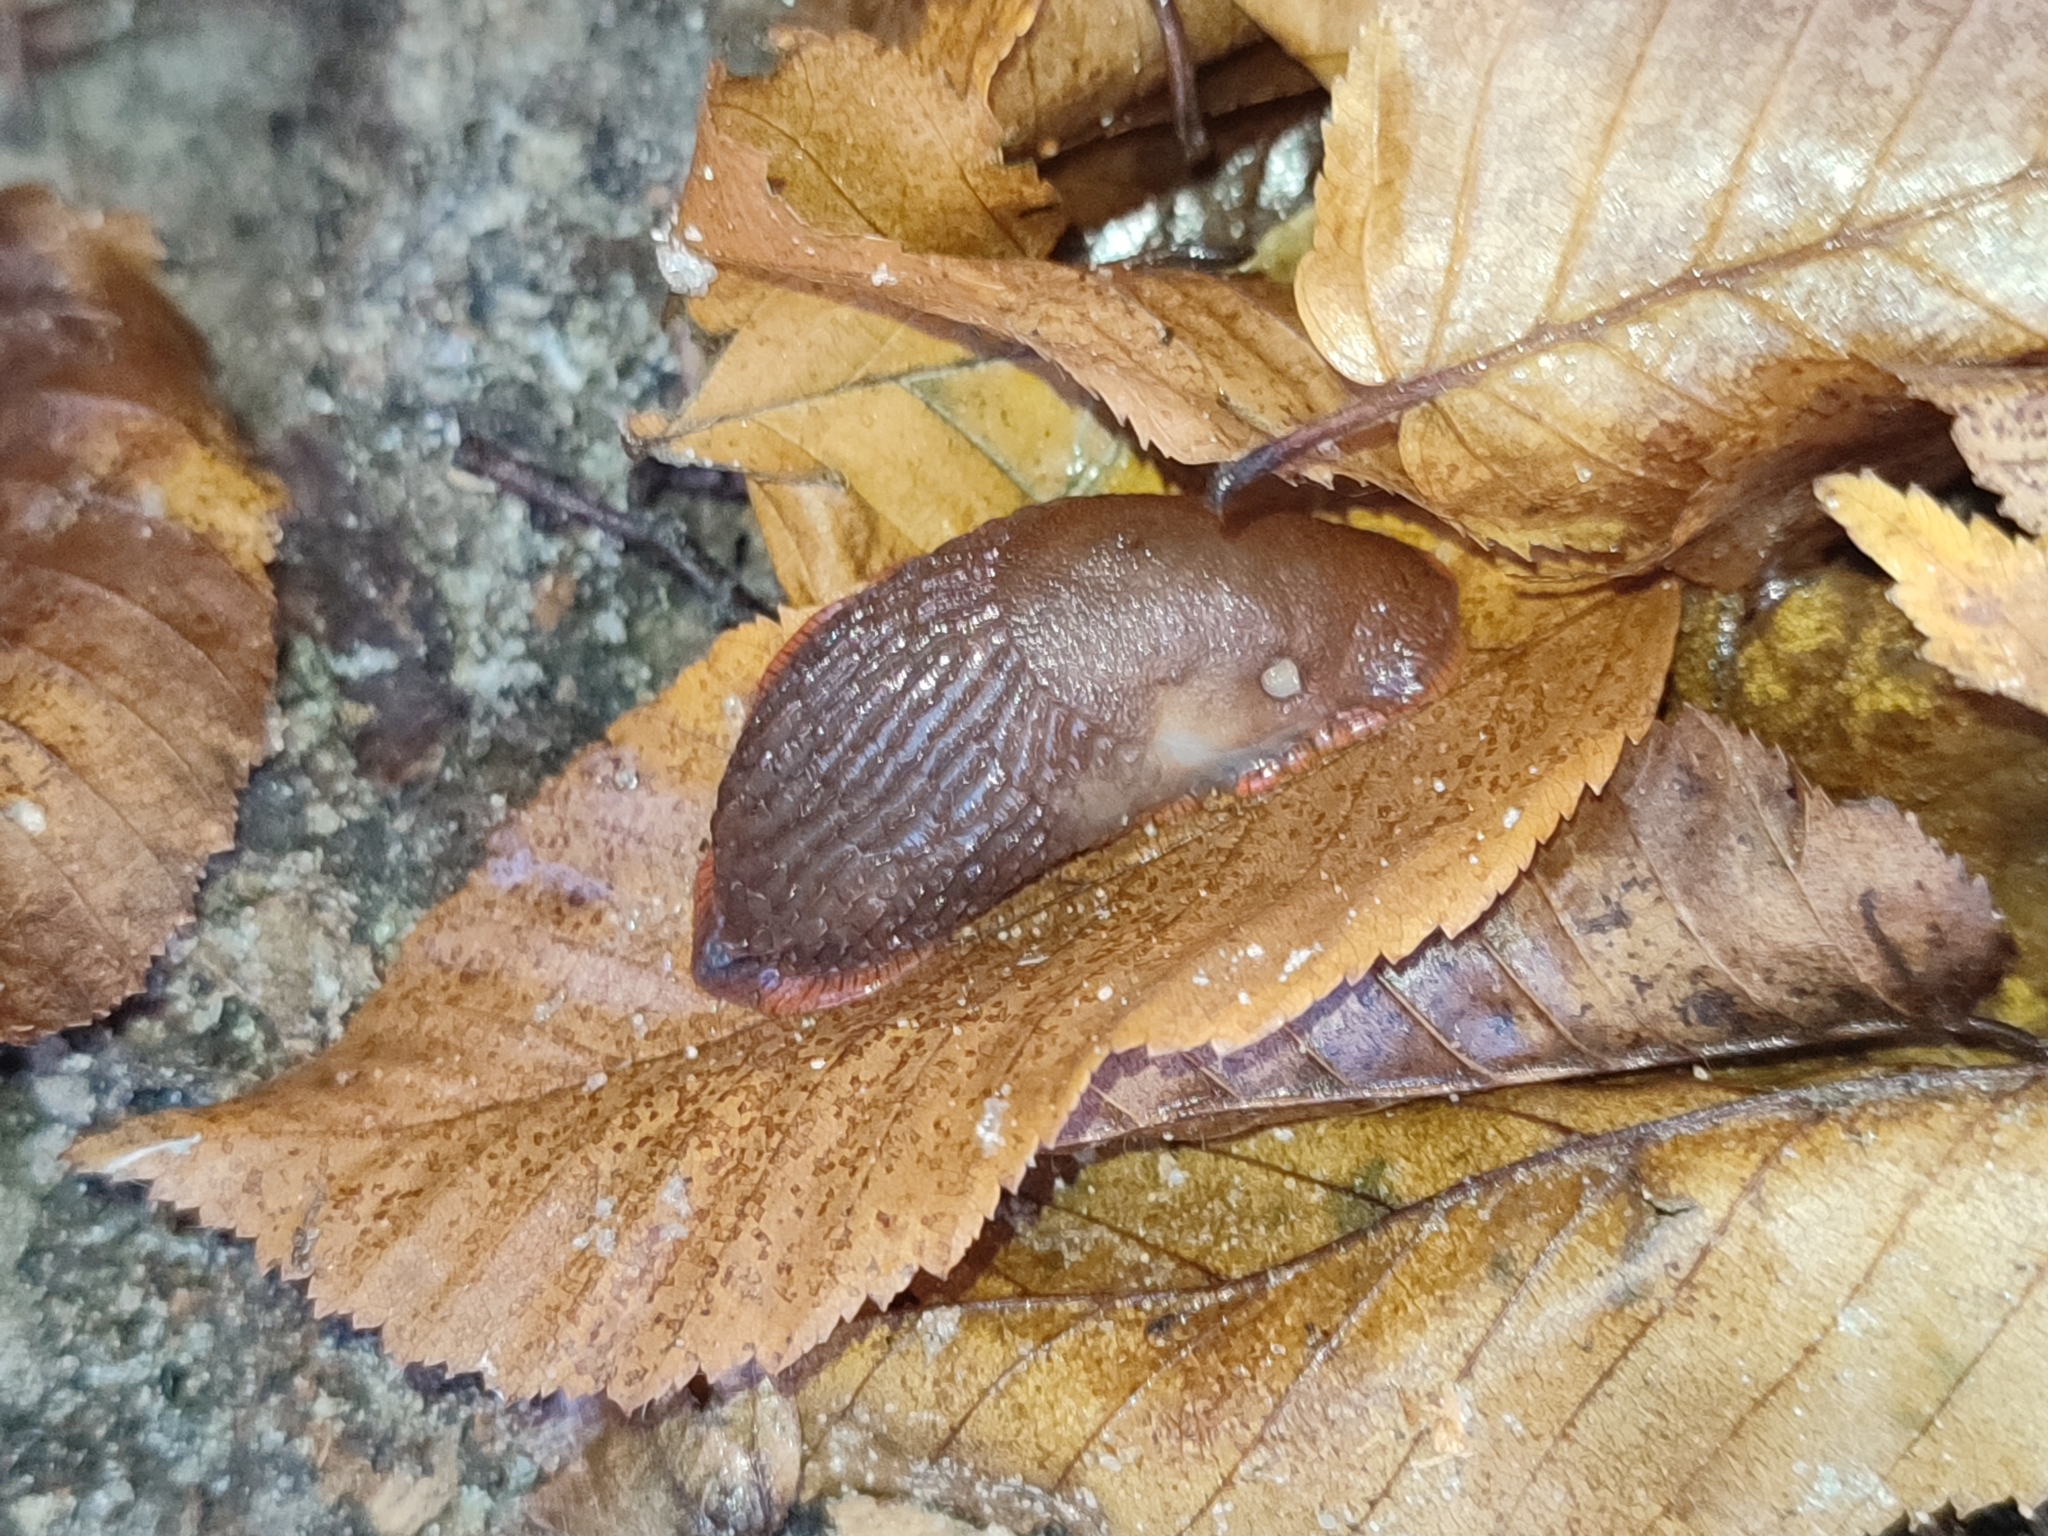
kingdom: Animalia
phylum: Mollusca
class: Gastropoda
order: Stylommatophora
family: Arionidae
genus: Arion
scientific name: Arion vulgaris
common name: Lusitanian slug
